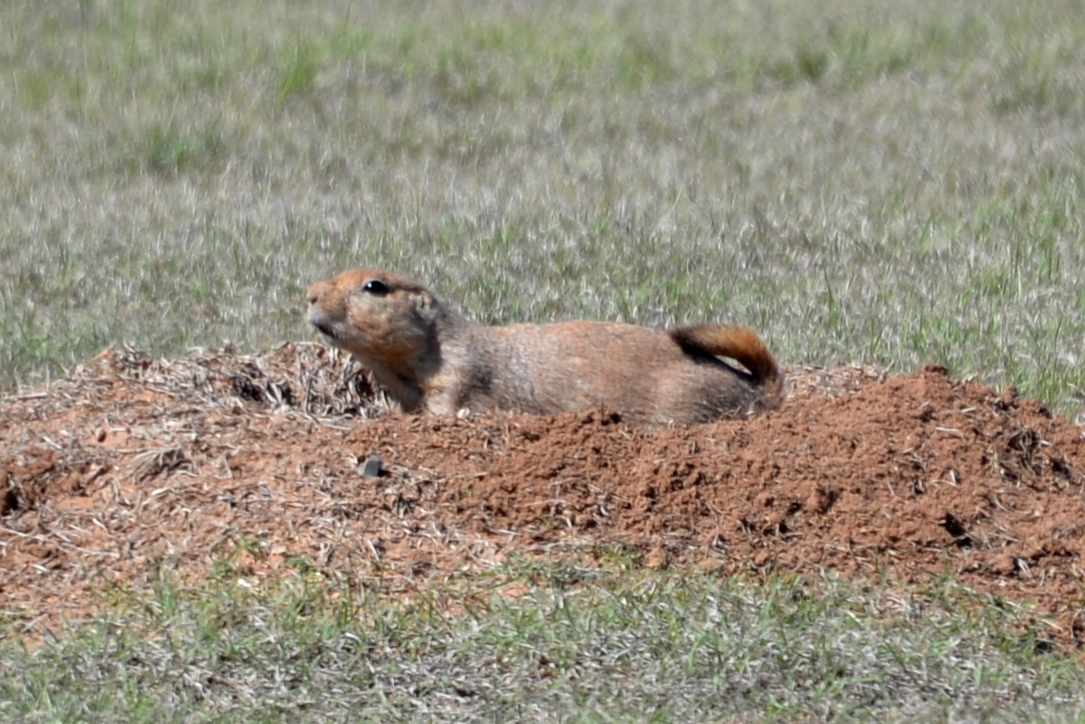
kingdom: Animalia
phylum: Chordata
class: Mammalia
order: Rodentia
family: Sciuridae
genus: Cynomys
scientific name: Cynomys ludovicianus
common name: Black-tailed prairie dog
